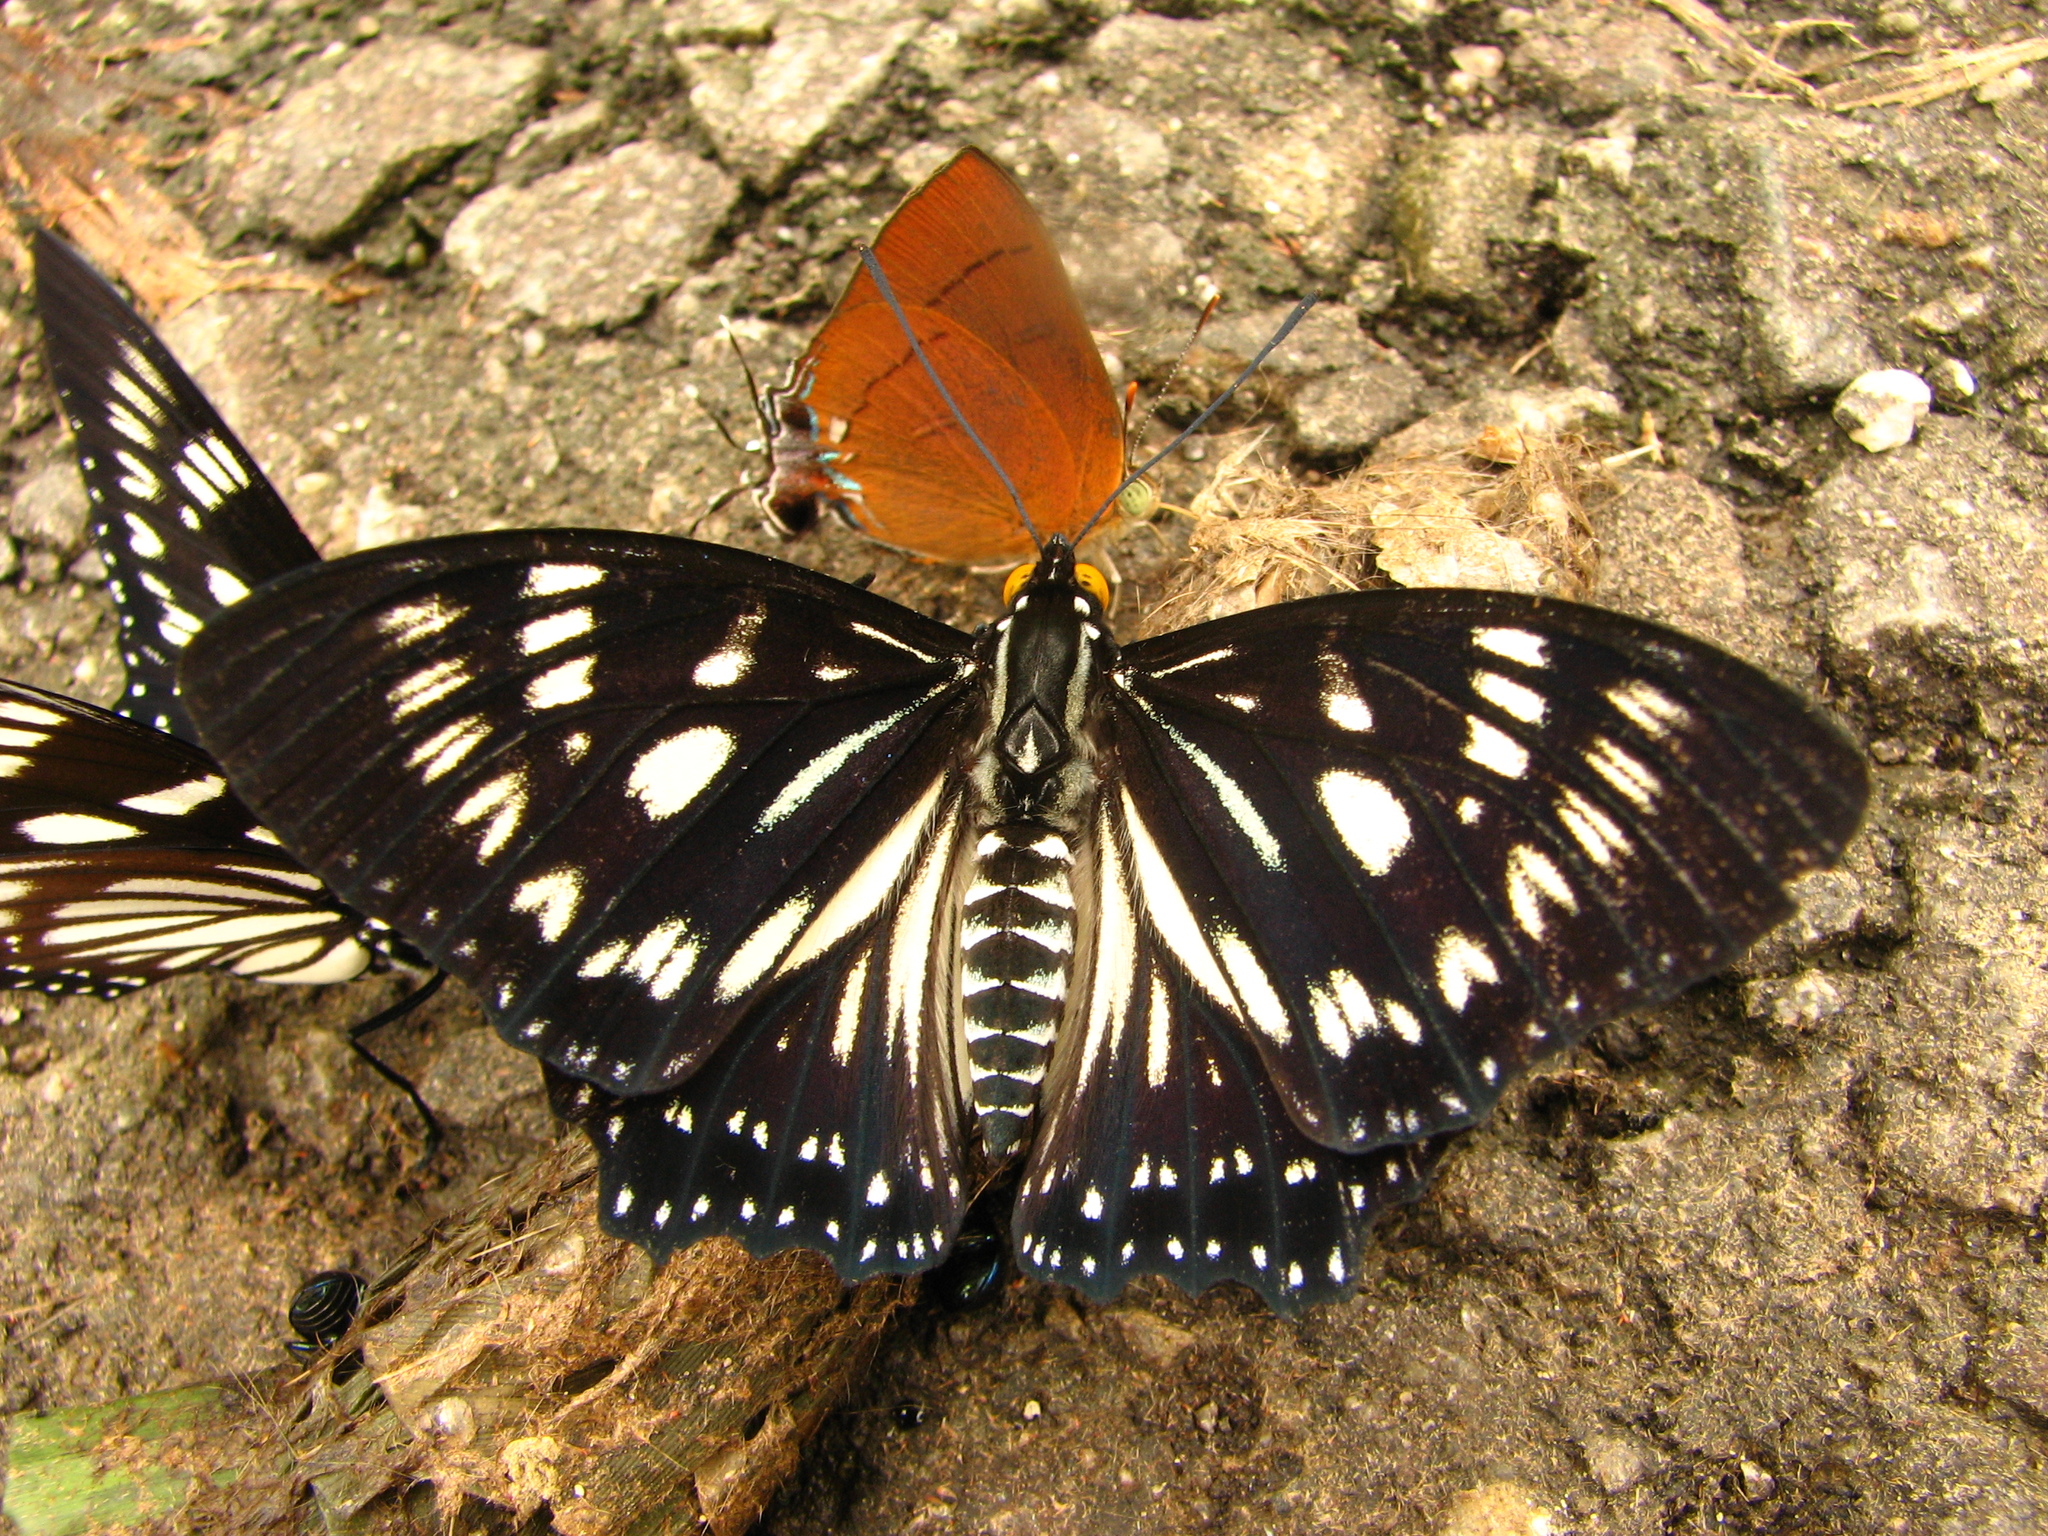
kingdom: Animalia
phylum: Arthropoda
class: Insecta
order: Lepidoptera
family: Nymphalidae
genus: Euripus
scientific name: Euripus nyctelius
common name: Courtesan
